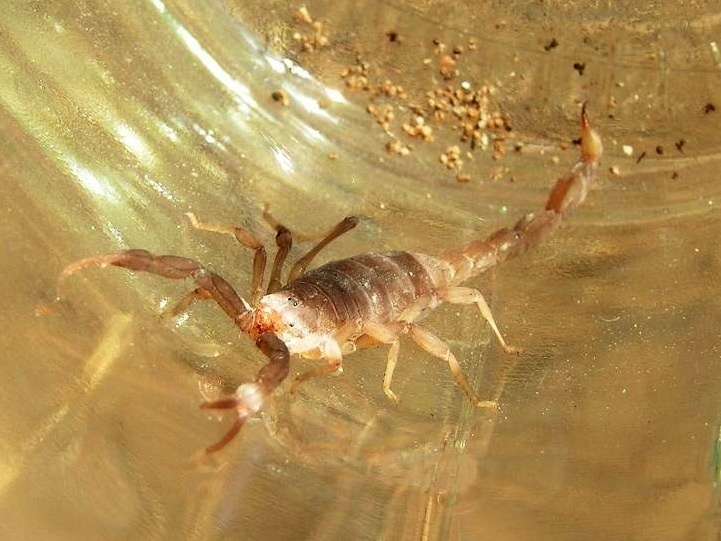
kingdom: Animalia
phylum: Arthropoda
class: Arachnida
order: Scorpiones
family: Vaejovidae
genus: Thorellius
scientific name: Thorellius
